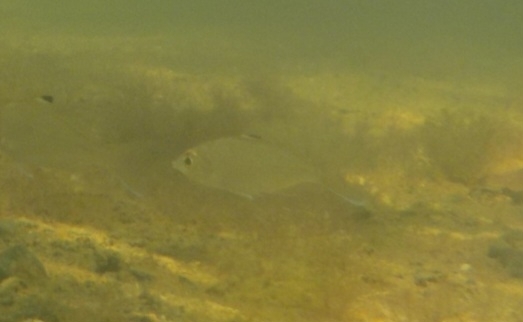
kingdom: Animalia
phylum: Chordata
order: Perciformes
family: Gerreidae
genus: Eucinostomus
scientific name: Eucinostomus melanopterus
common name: Flagfin mojarra
